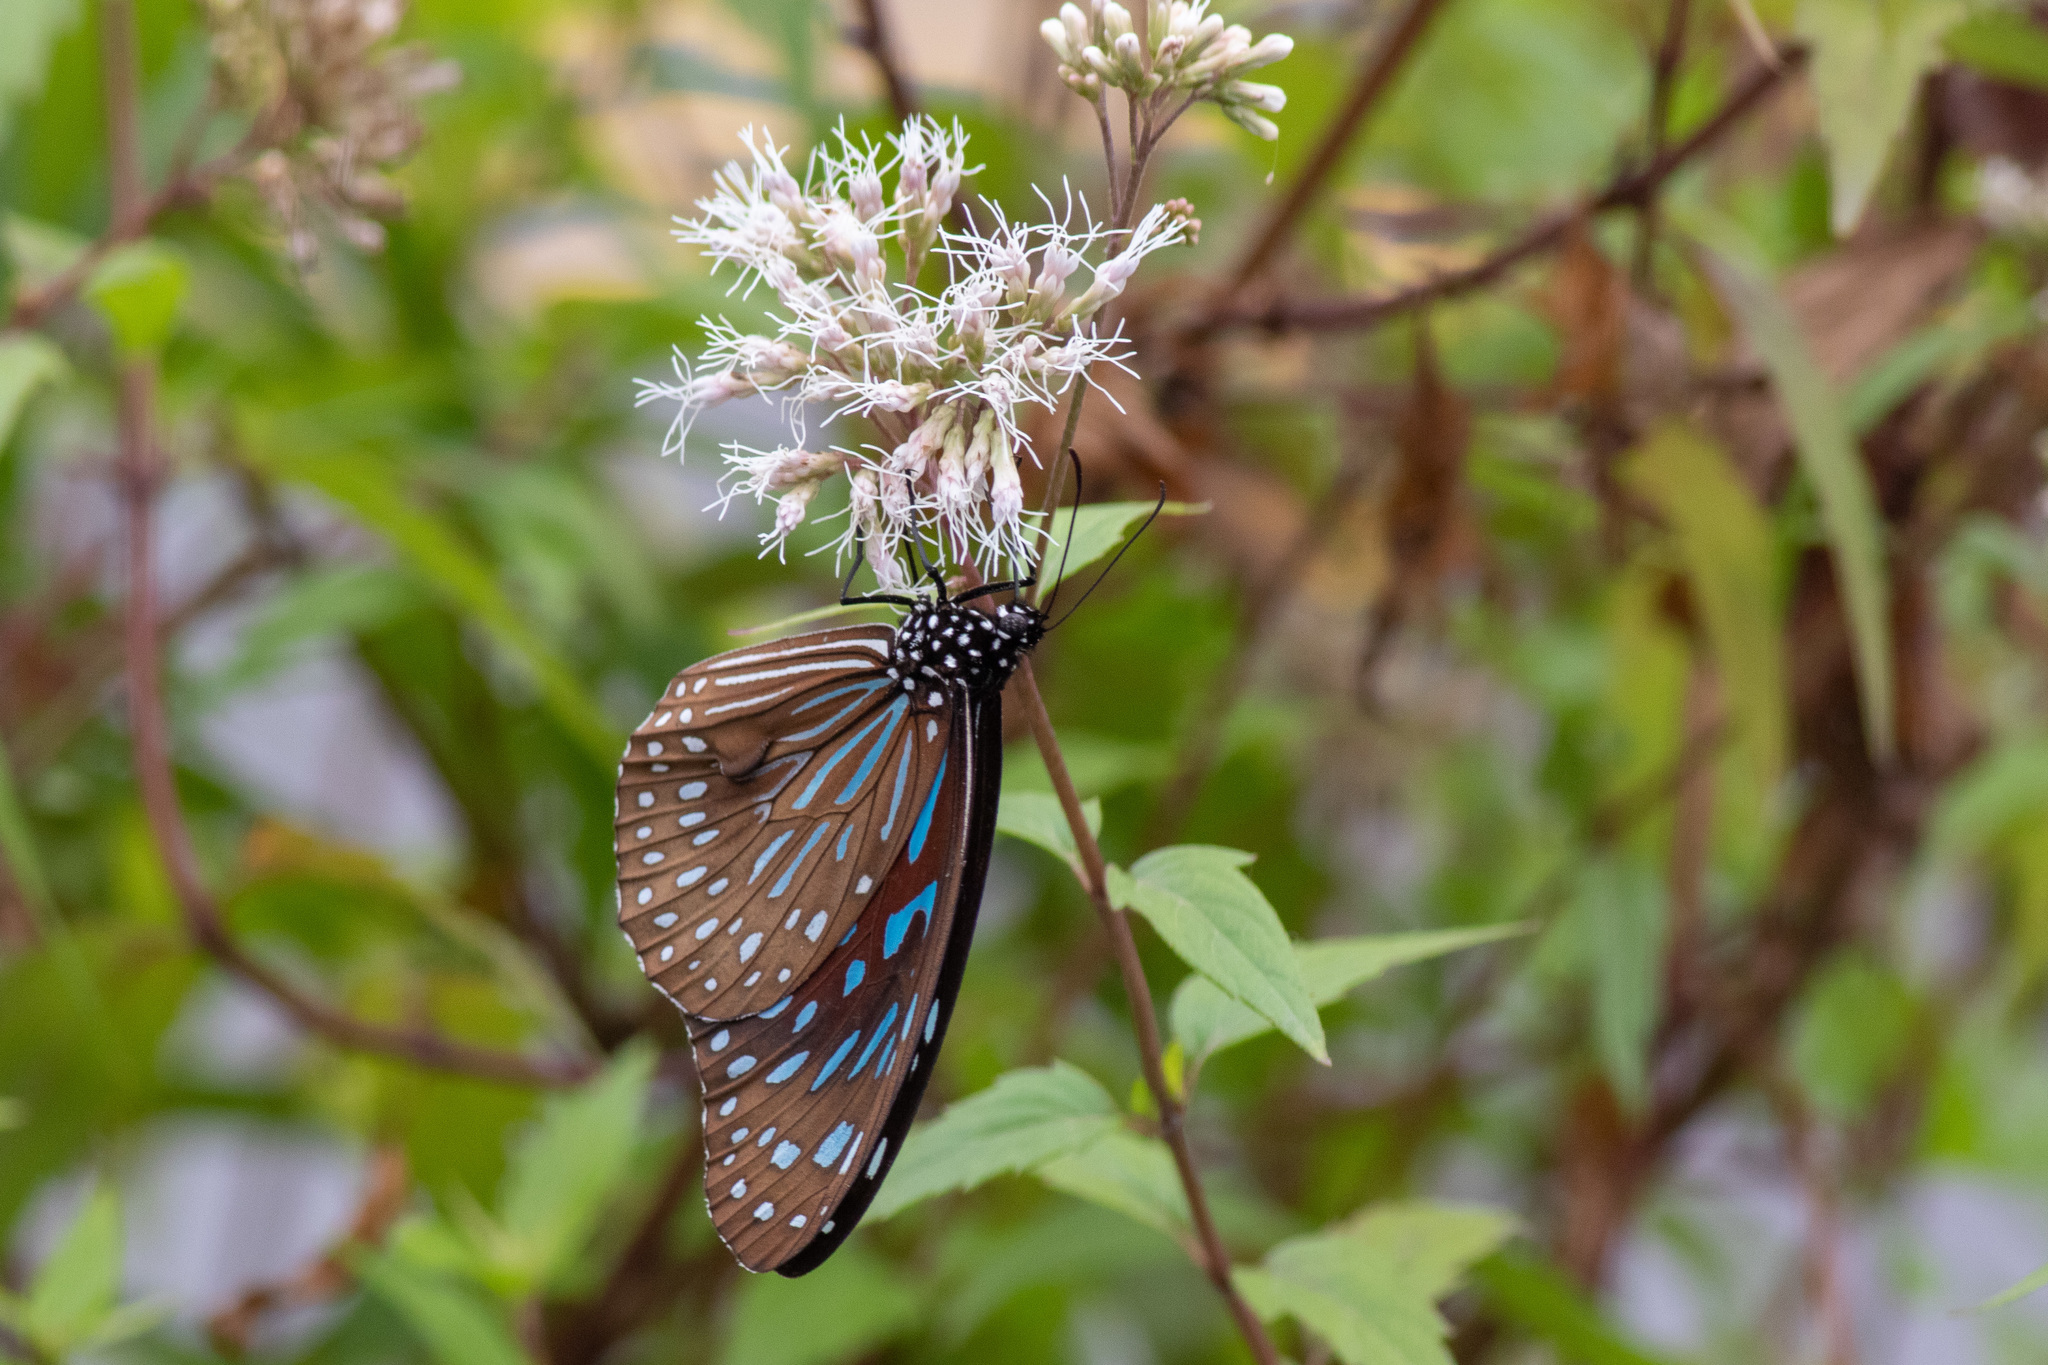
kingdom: Animalia
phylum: Arthropoda
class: Insecta
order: Lepidoptera
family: Nymphalidae
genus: Tirumala
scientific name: Tirumala septentrionis
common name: Dark blue tiger butterfly
